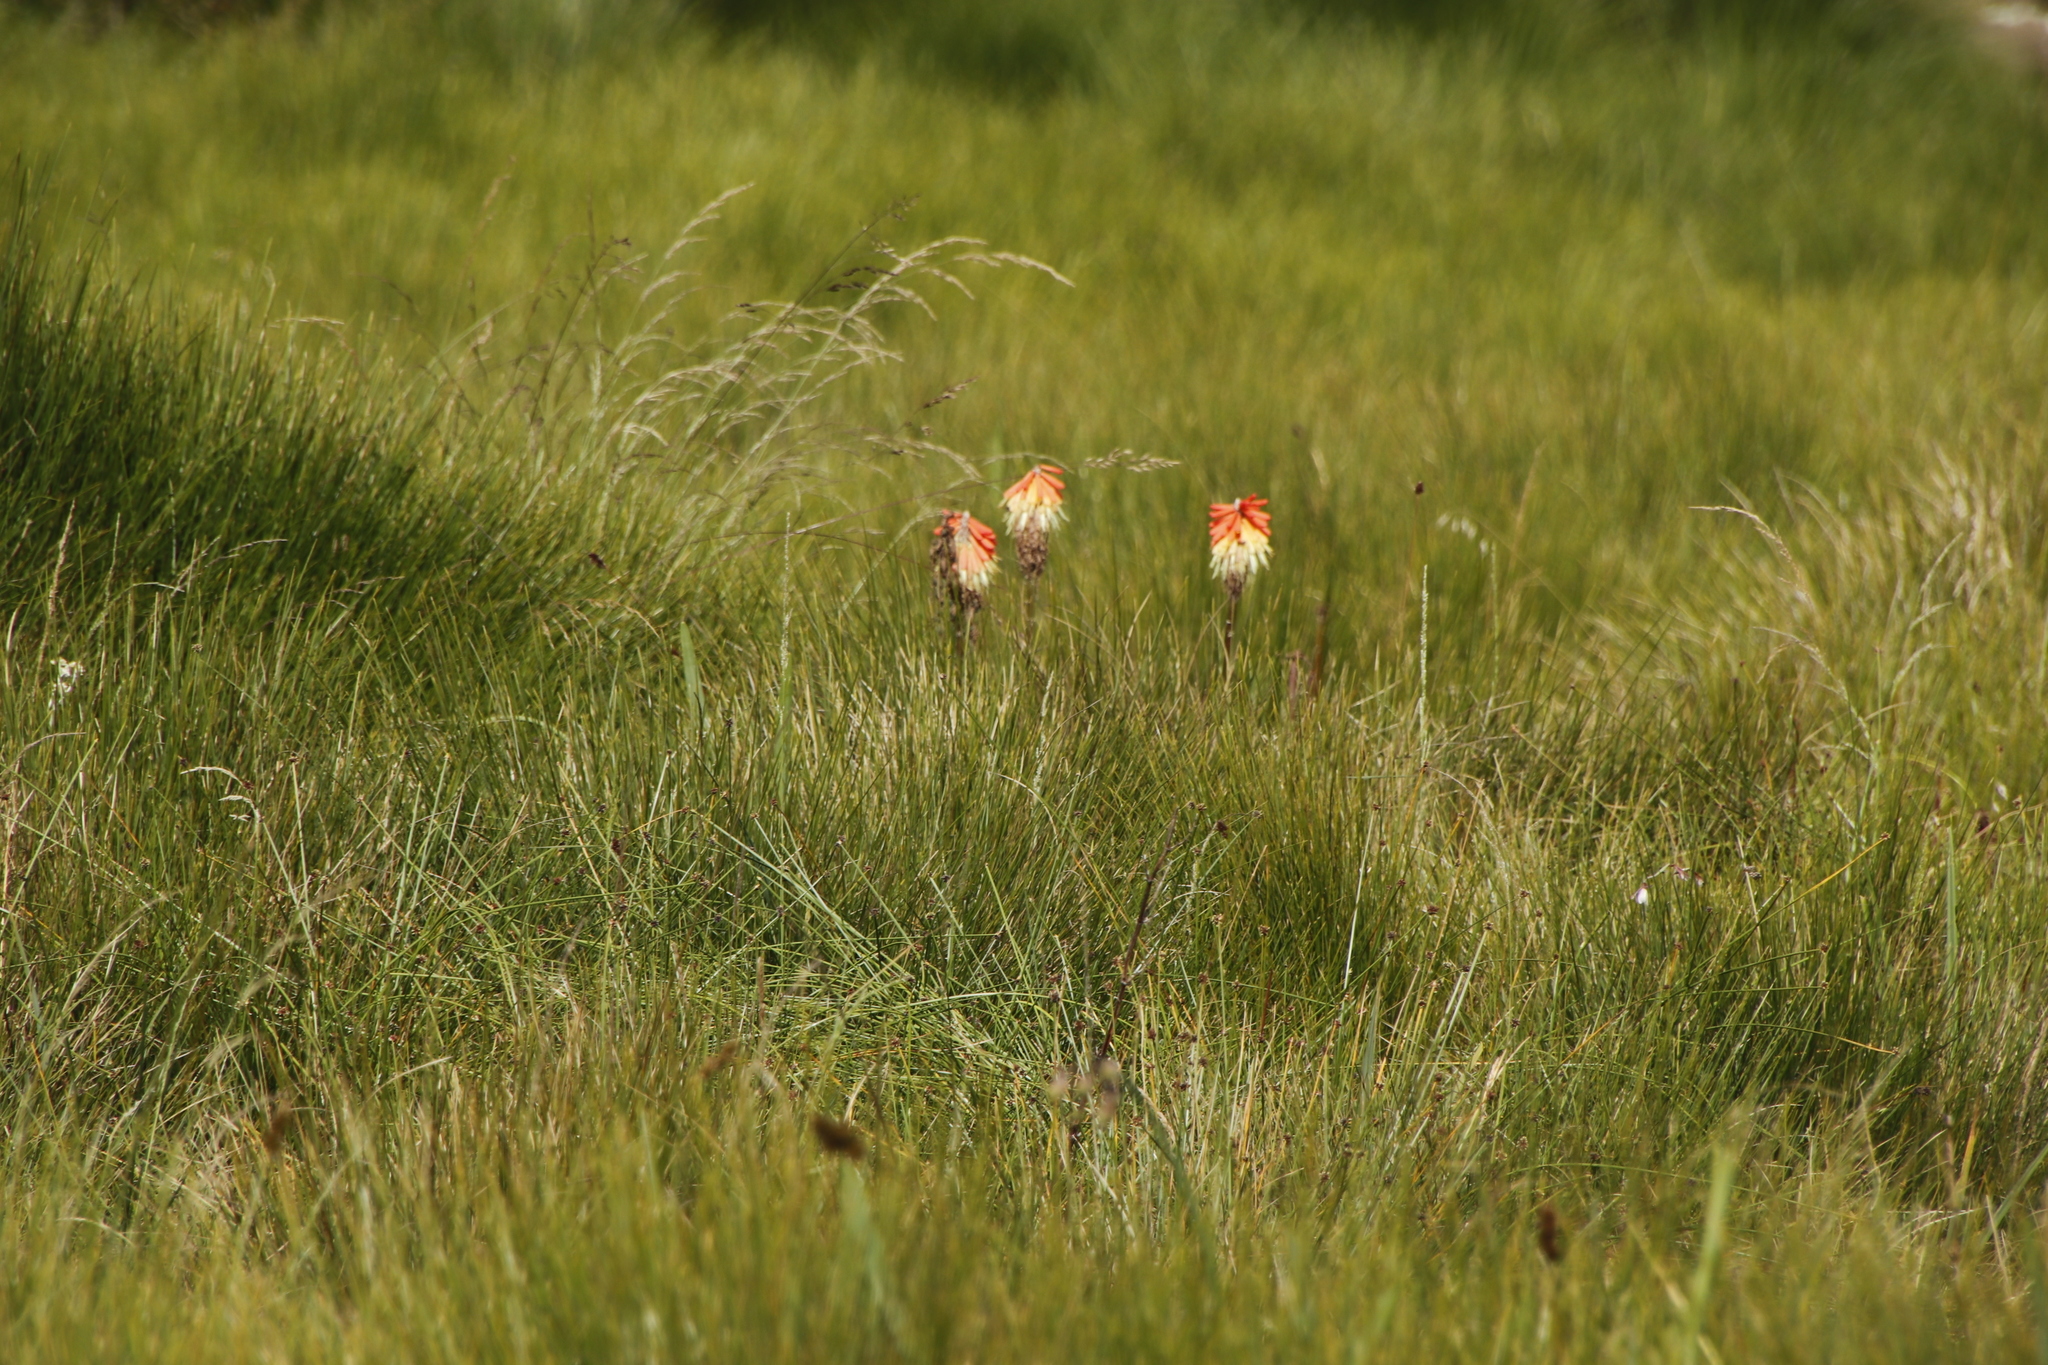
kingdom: Plantae
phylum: Tracheophyta
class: Liliopsida
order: Asparagales
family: Asphodelaceae
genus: Kniphofia
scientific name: Kniphofia caulescens
